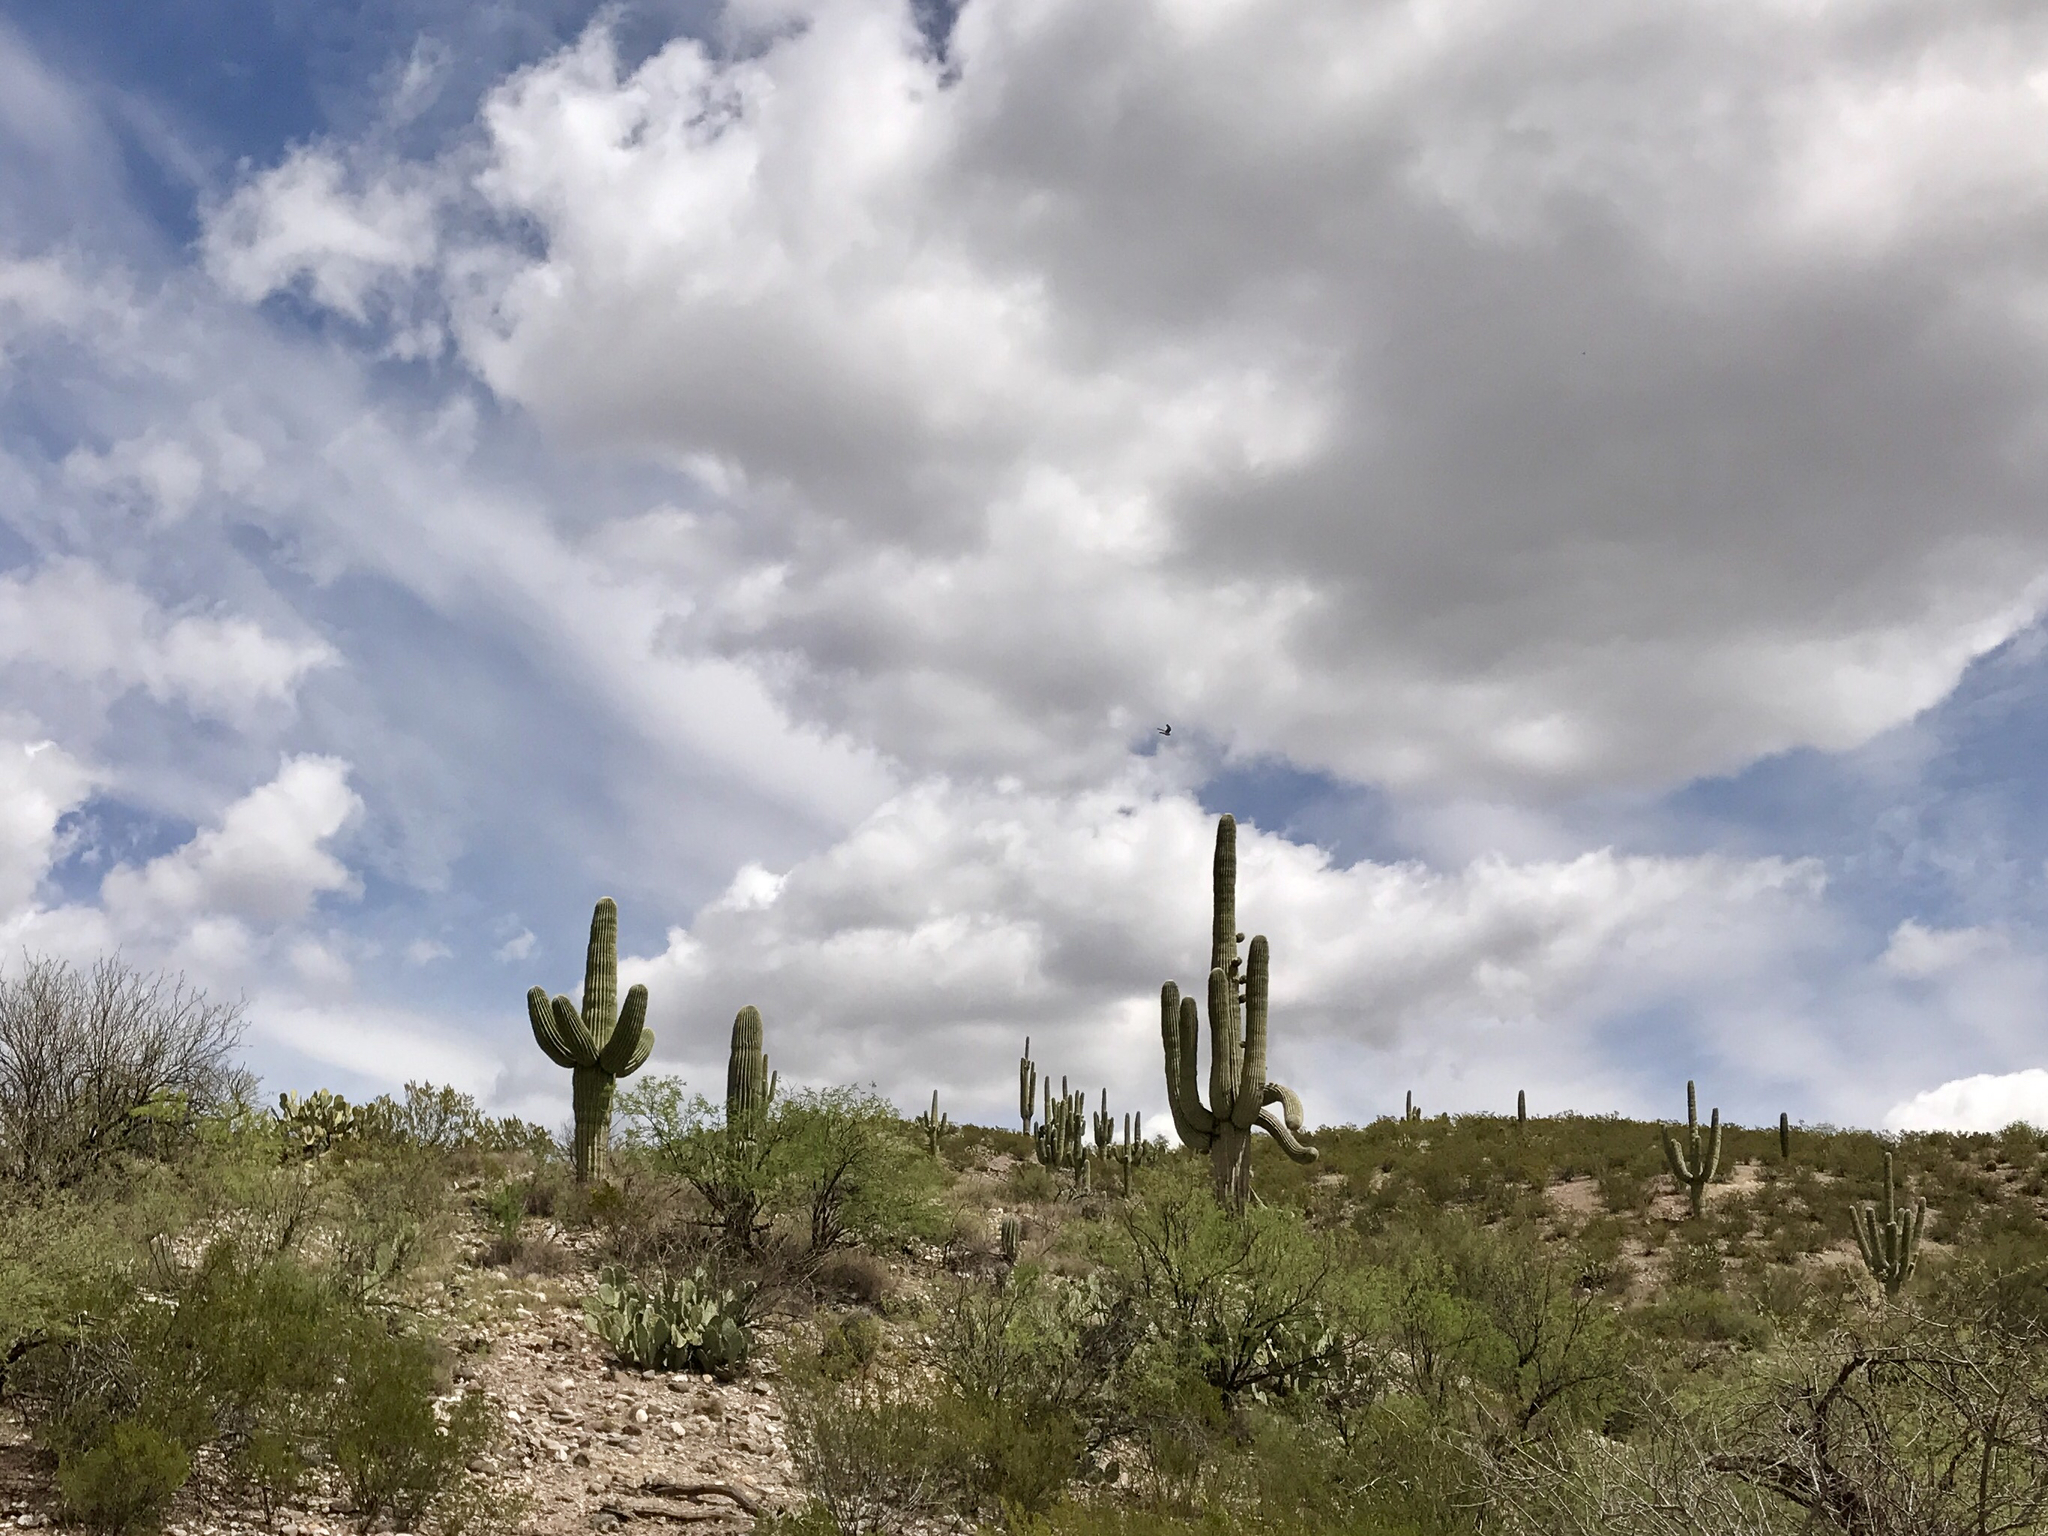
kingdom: Plantae
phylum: Tracheophyta
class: Magnoliopsida
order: Caryophyllales
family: Cactaceae
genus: Carnegiea
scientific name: Carnegiea gigantea
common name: Saguaro
